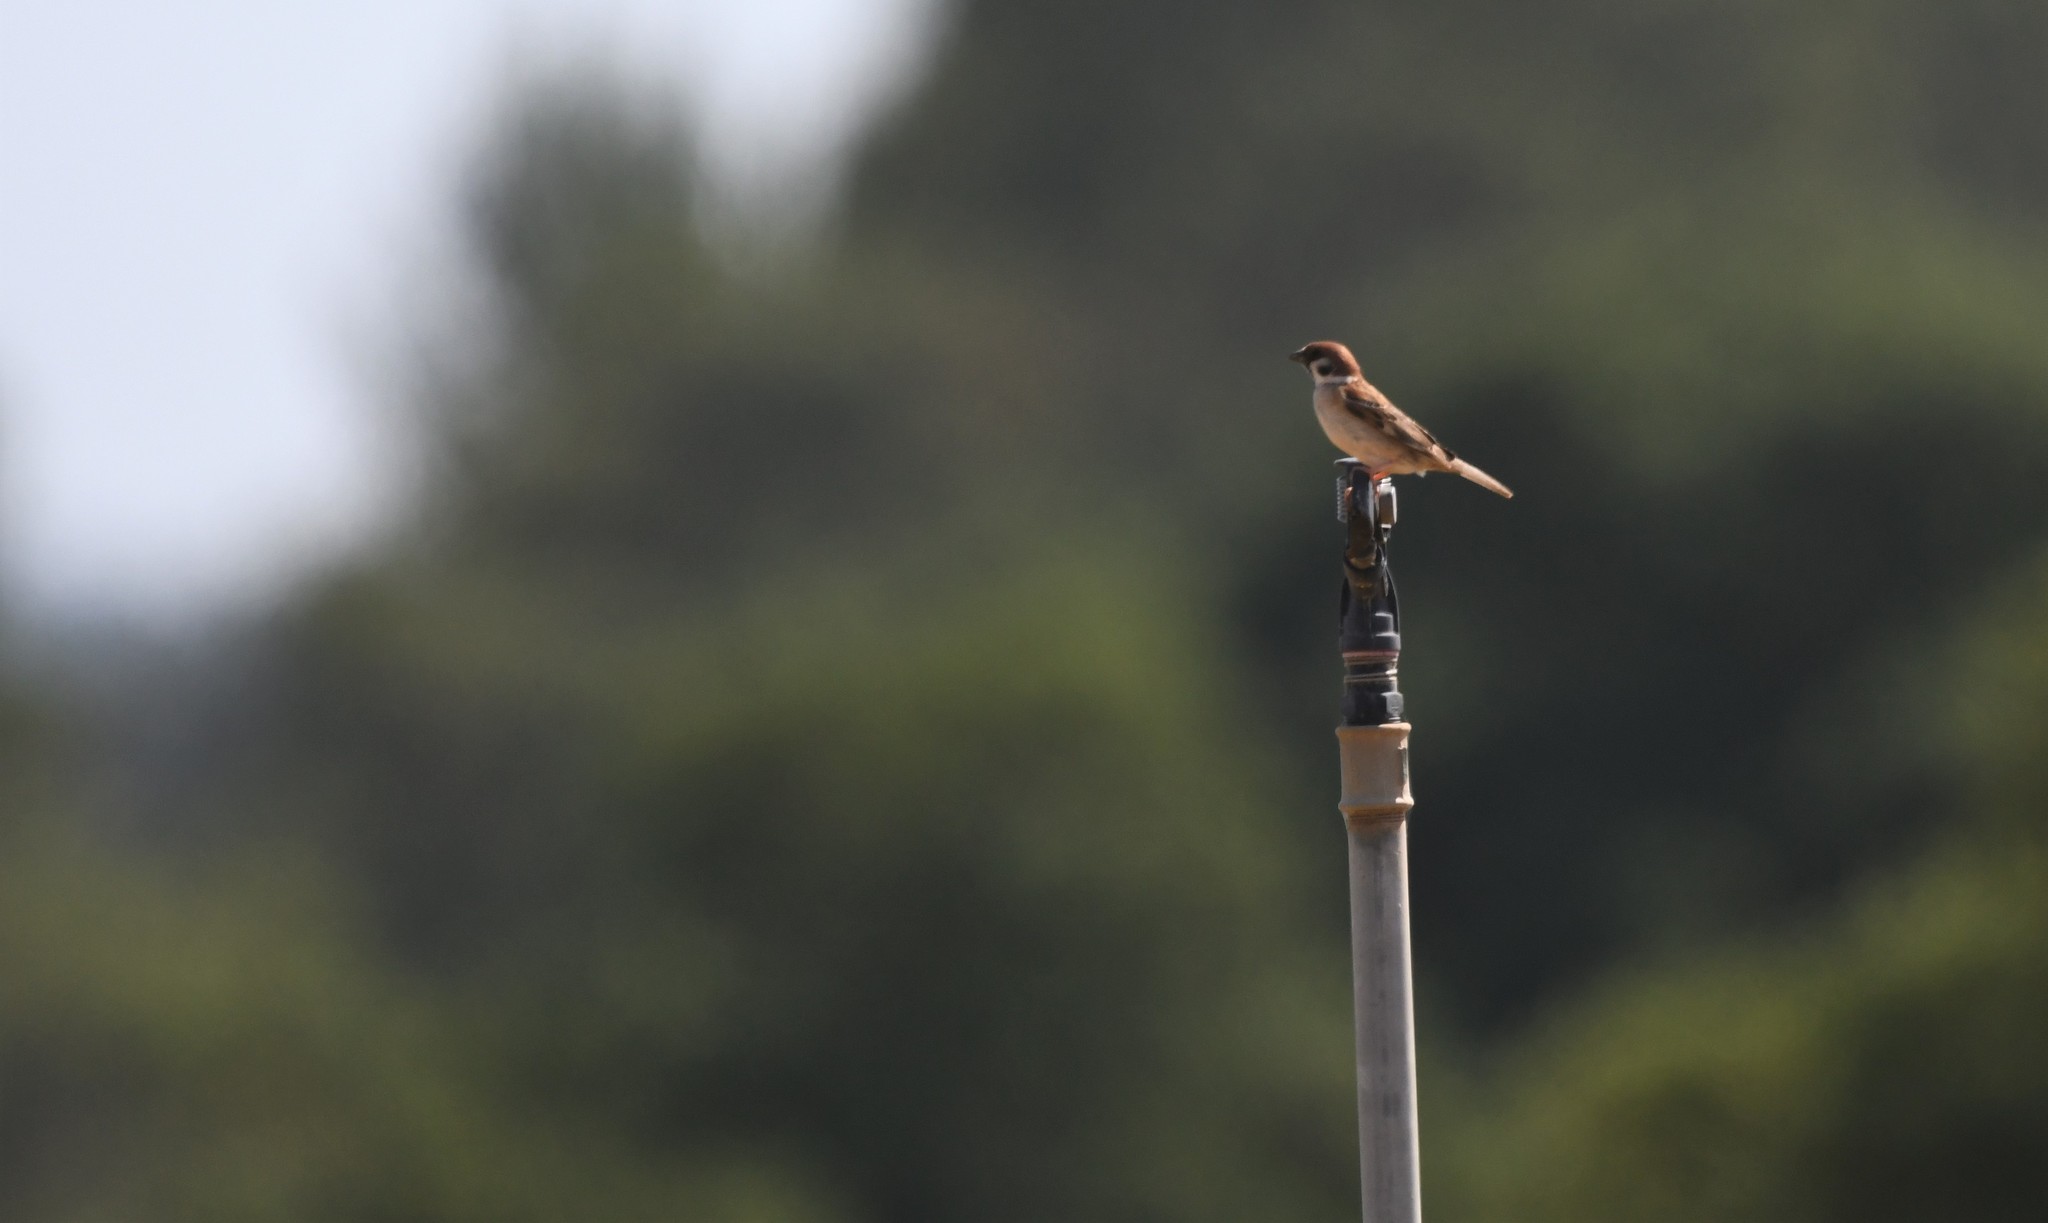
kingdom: Animalia
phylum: Chordata
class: Aves
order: Passeriformes
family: Passeridae
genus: Passer
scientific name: Passer montanus
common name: Eurasian tree sparrow
